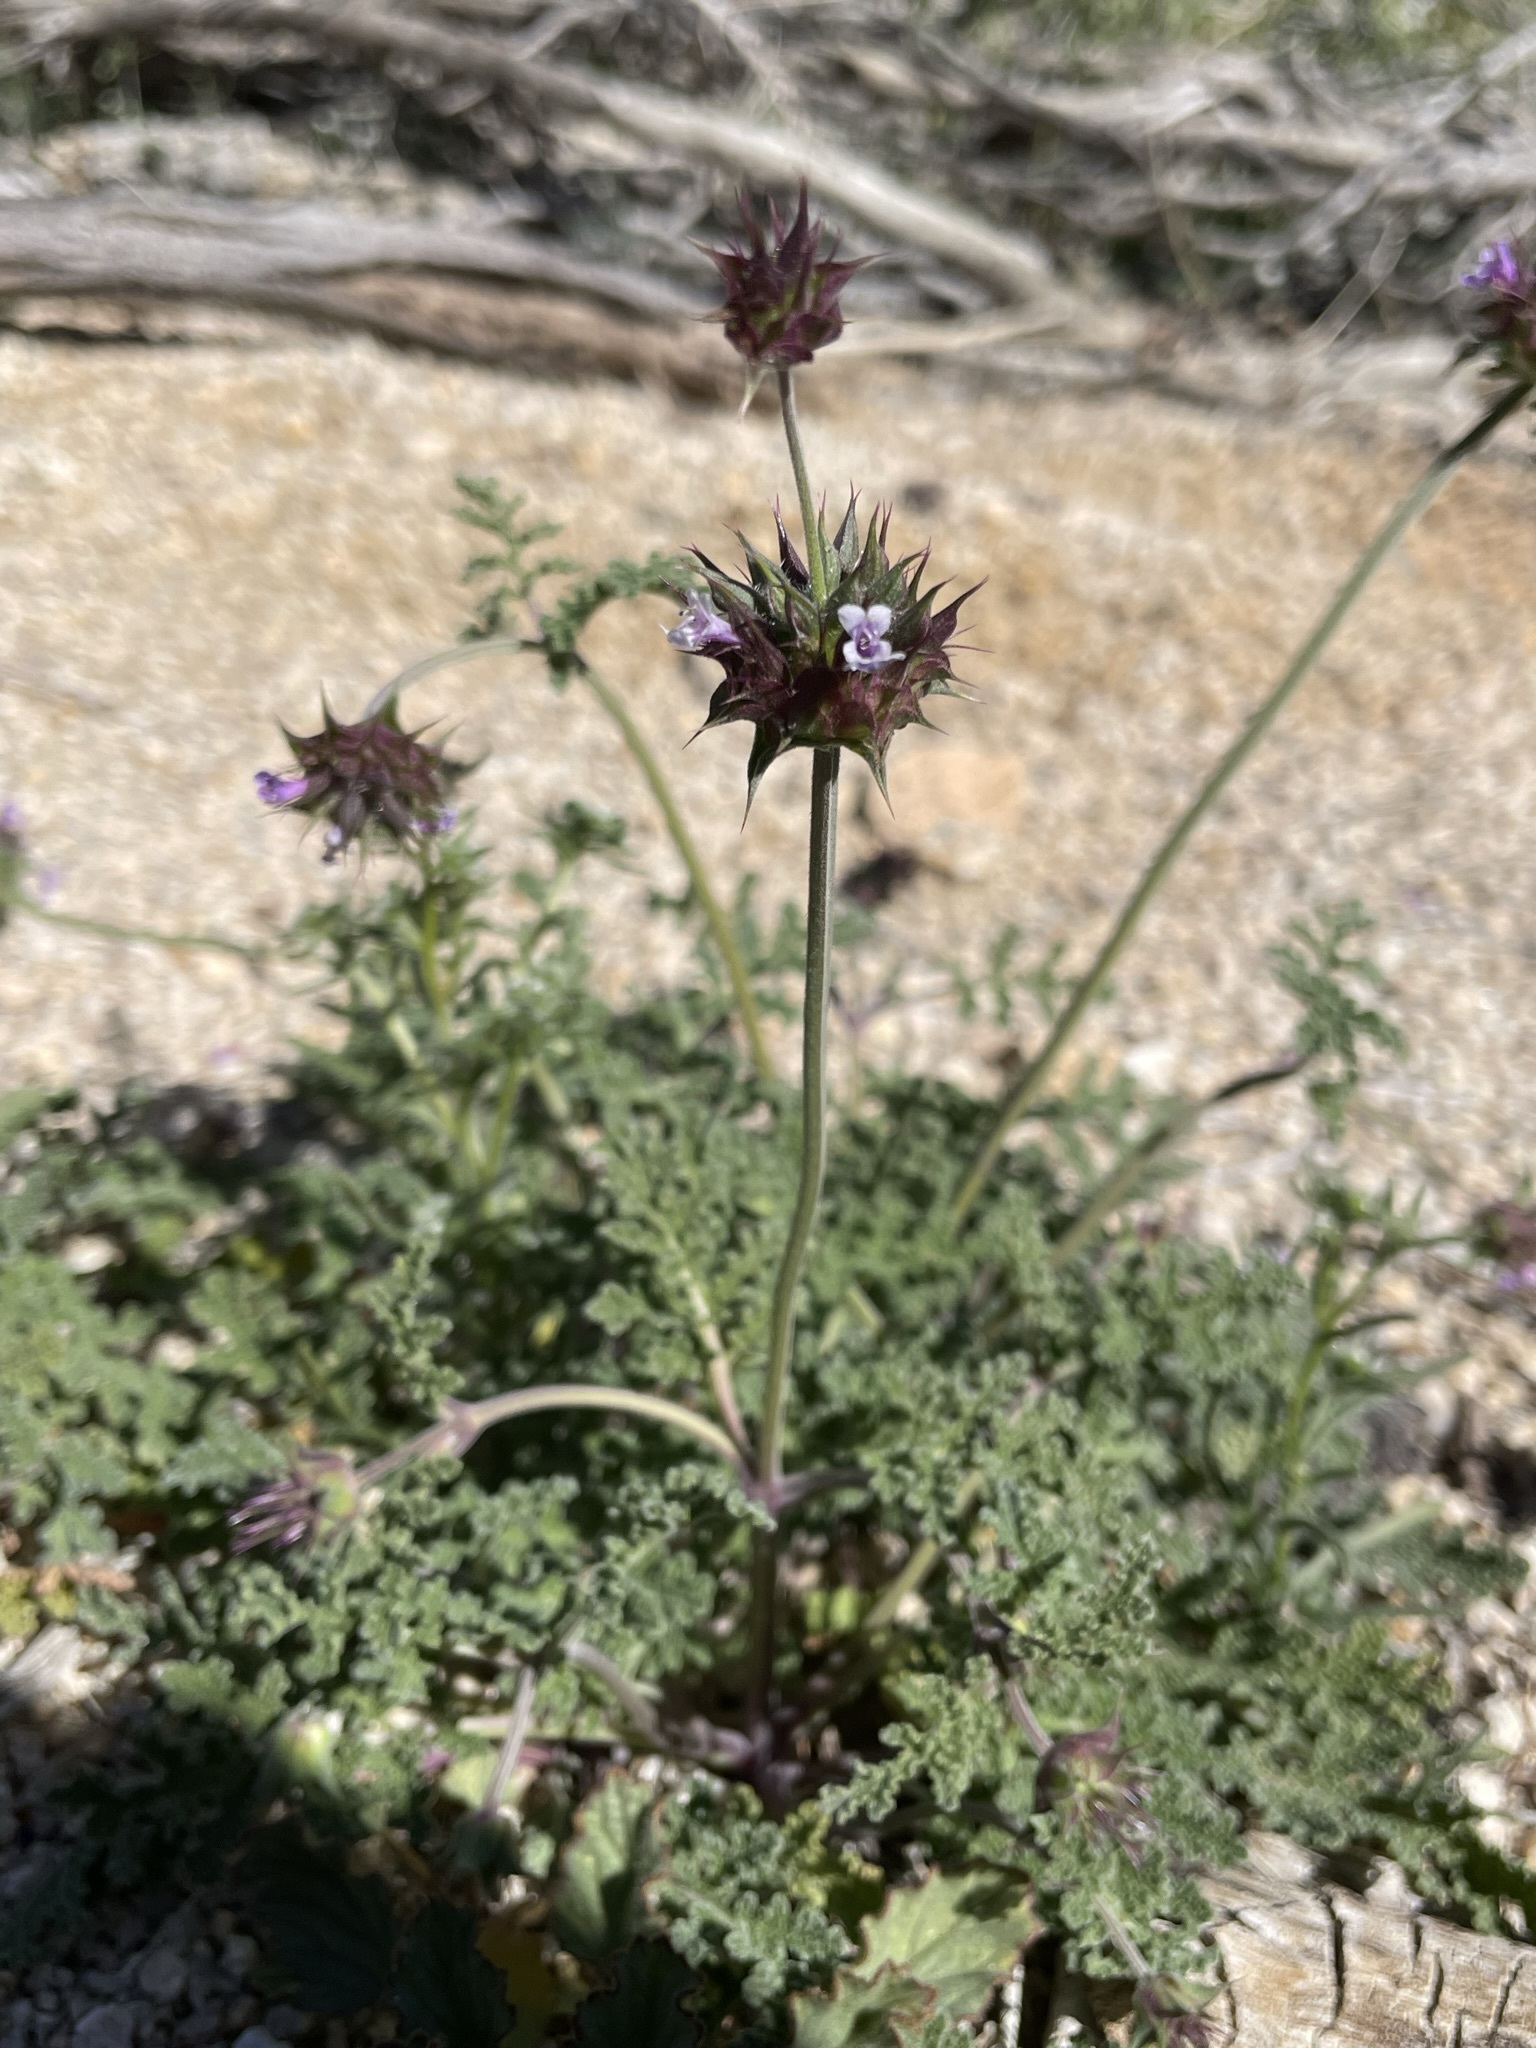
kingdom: Plantae
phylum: Tracheophyta
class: Magnoliopsida
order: Lamiales
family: Lamiaceae
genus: Salvia
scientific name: Salvia columbariae
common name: Chia
